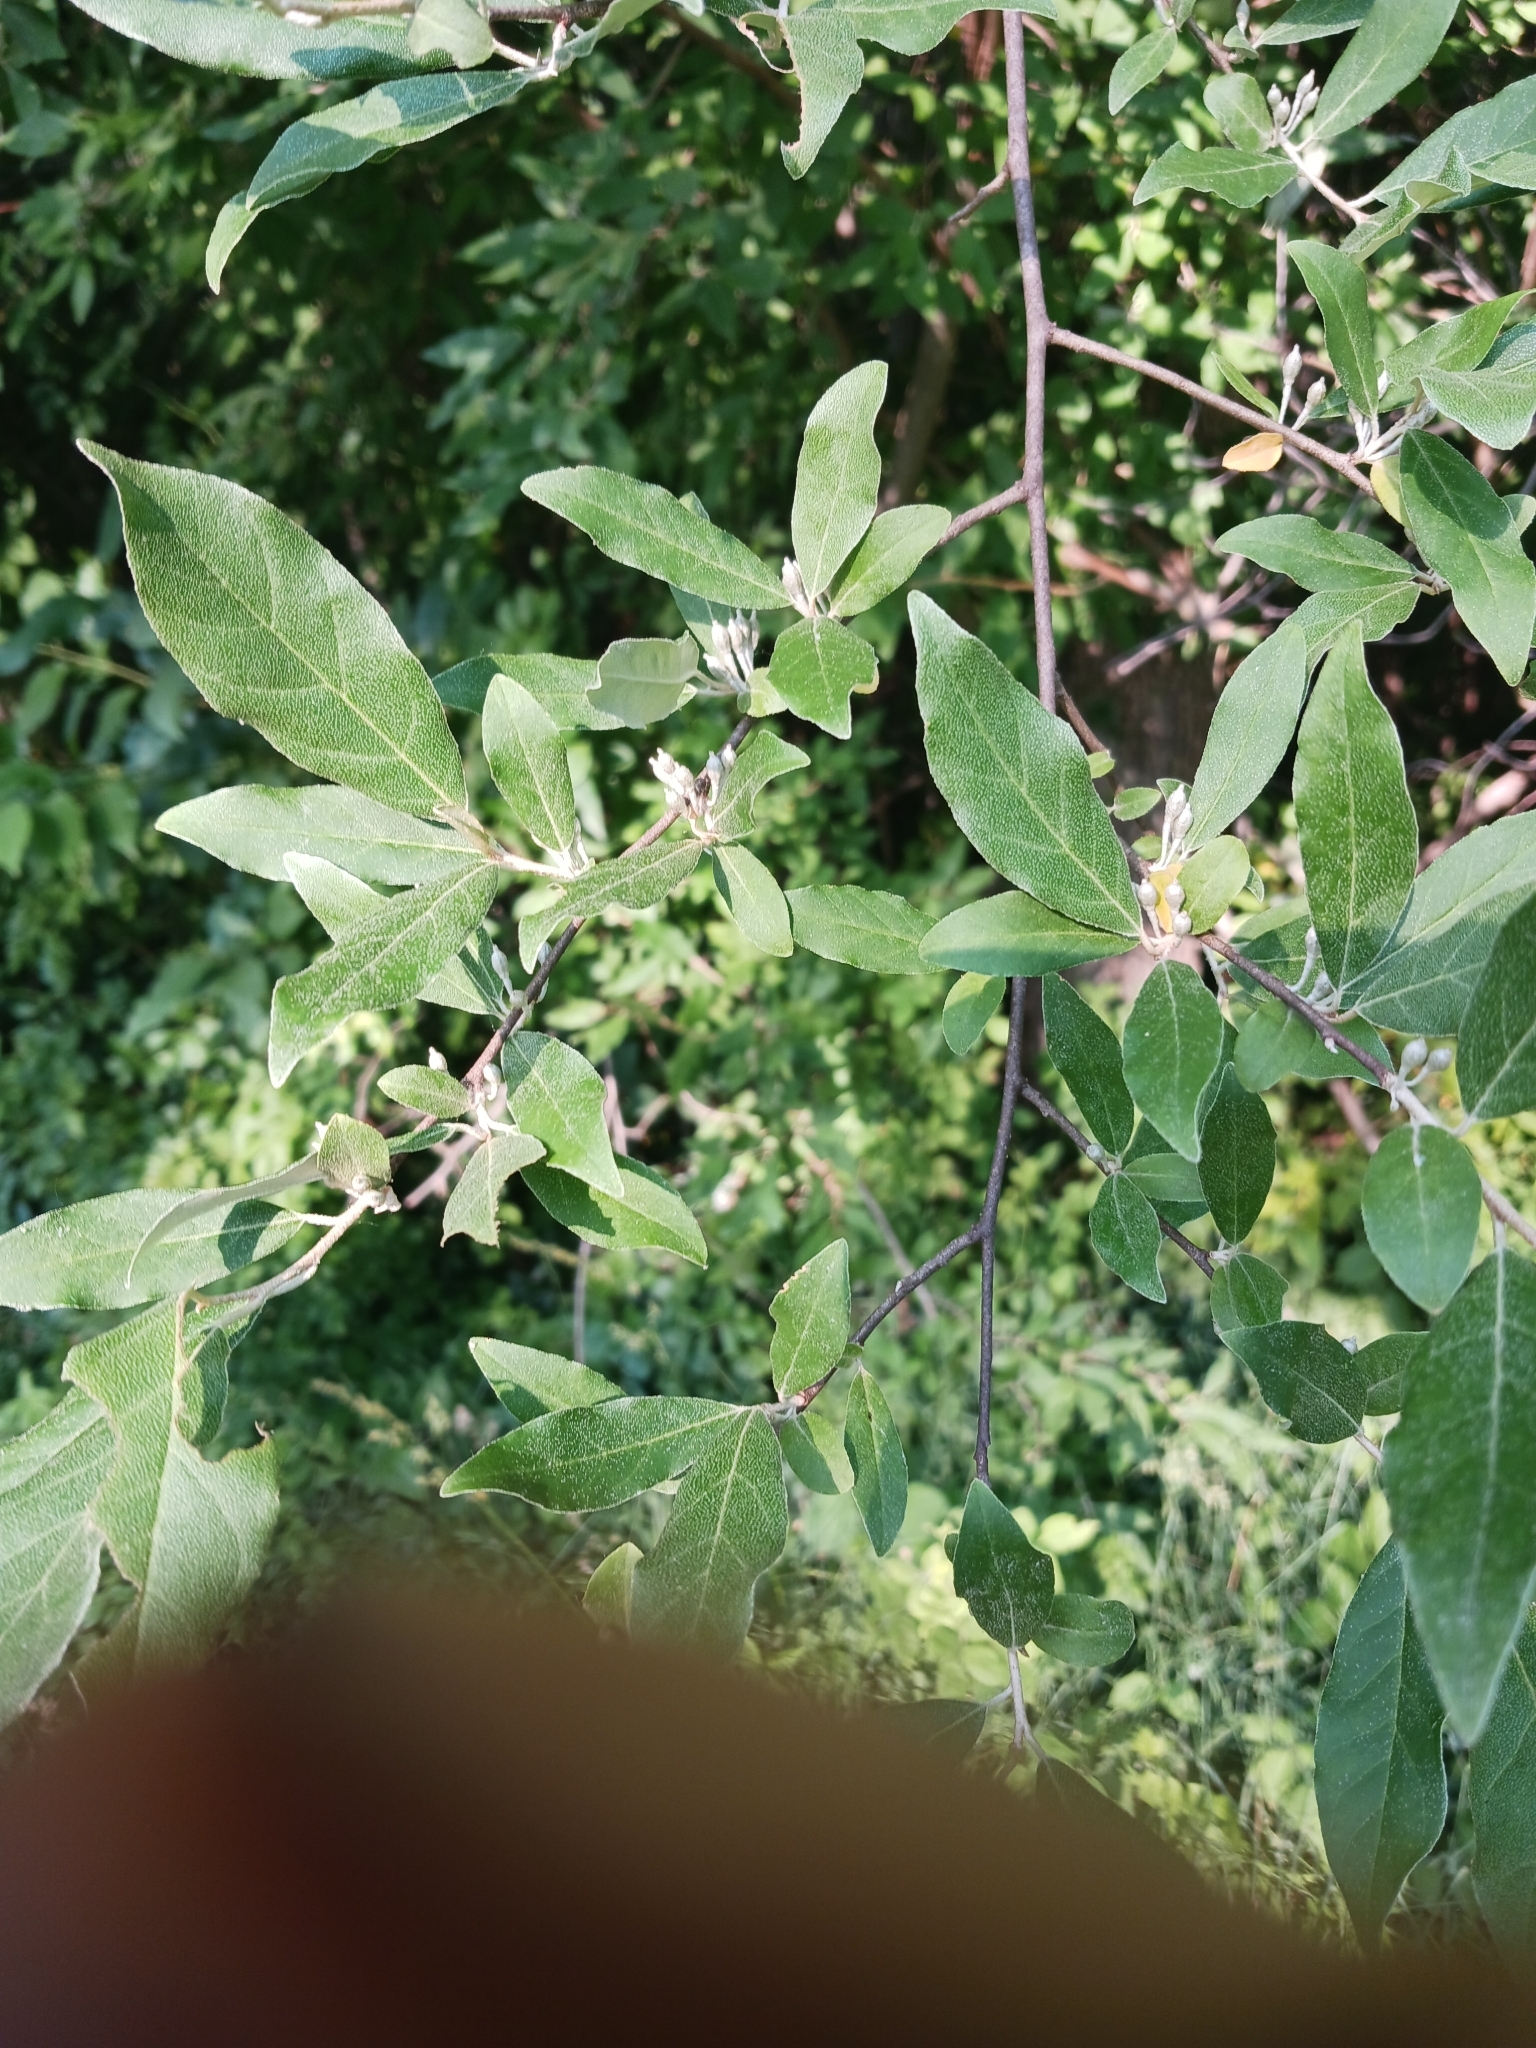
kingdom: Plantae
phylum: Tracheophyta
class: Magnoliopsida
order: Rosales
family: Elaeagnaceae
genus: Elaeagnus
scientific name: Elaeagnus umbellata
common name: Autumn olive
